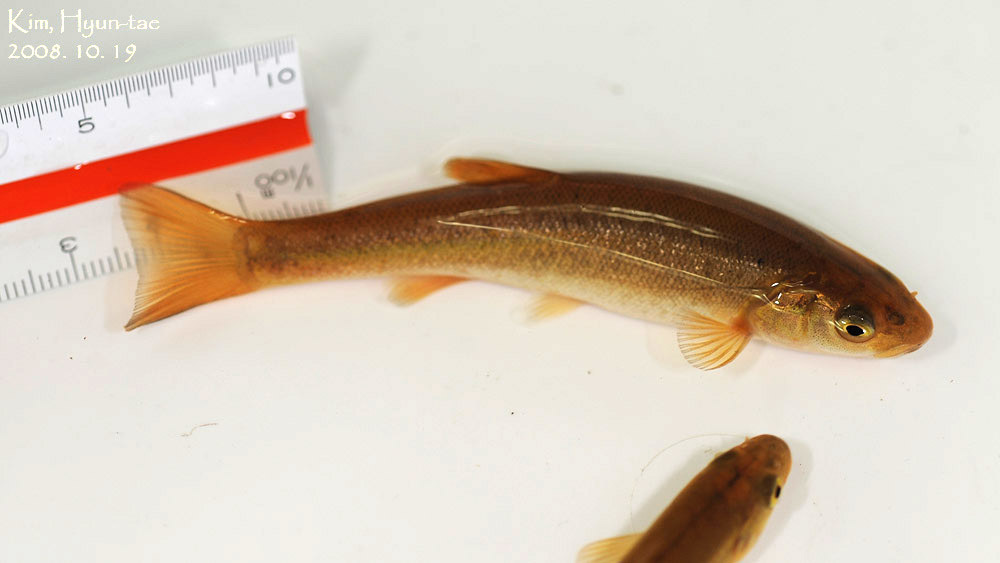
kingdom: Animalia
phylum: Chordata
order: Cypriniformes
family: Cyprinidae
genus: Rhynchocypris
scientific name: Rhynchocypris oxycephalus
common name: Chinese minnow
